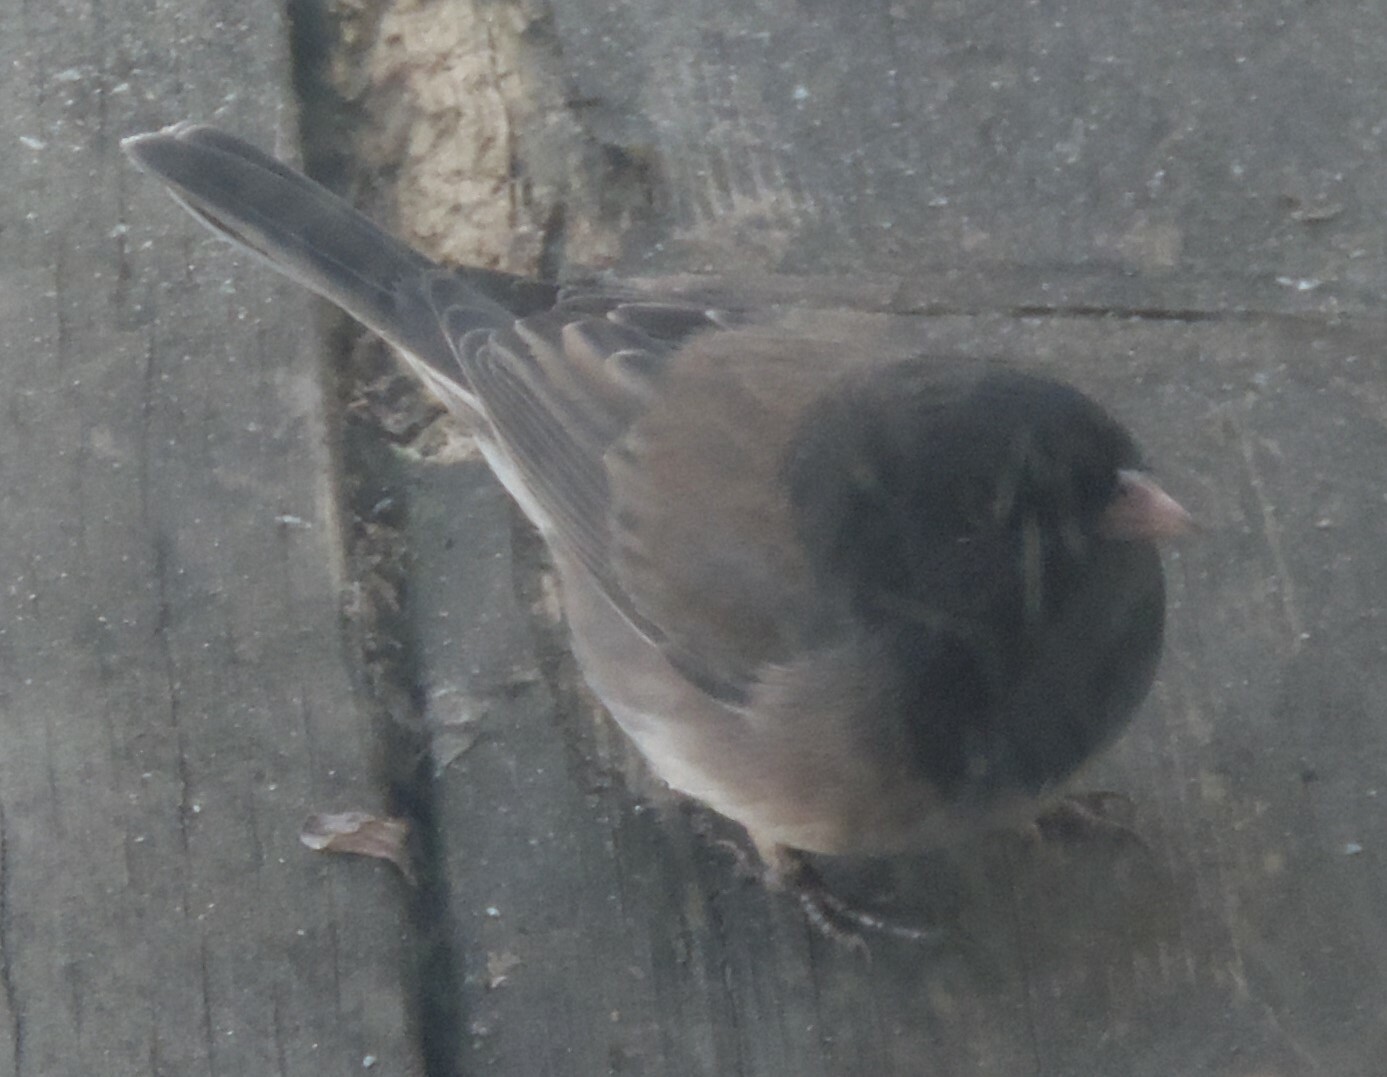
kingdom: Animalia
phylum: Chordata
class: Aves
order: Passeriformes
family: Passerellidae
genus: Junco
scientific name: Junco hyemalis
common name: Dark-eyed junco
